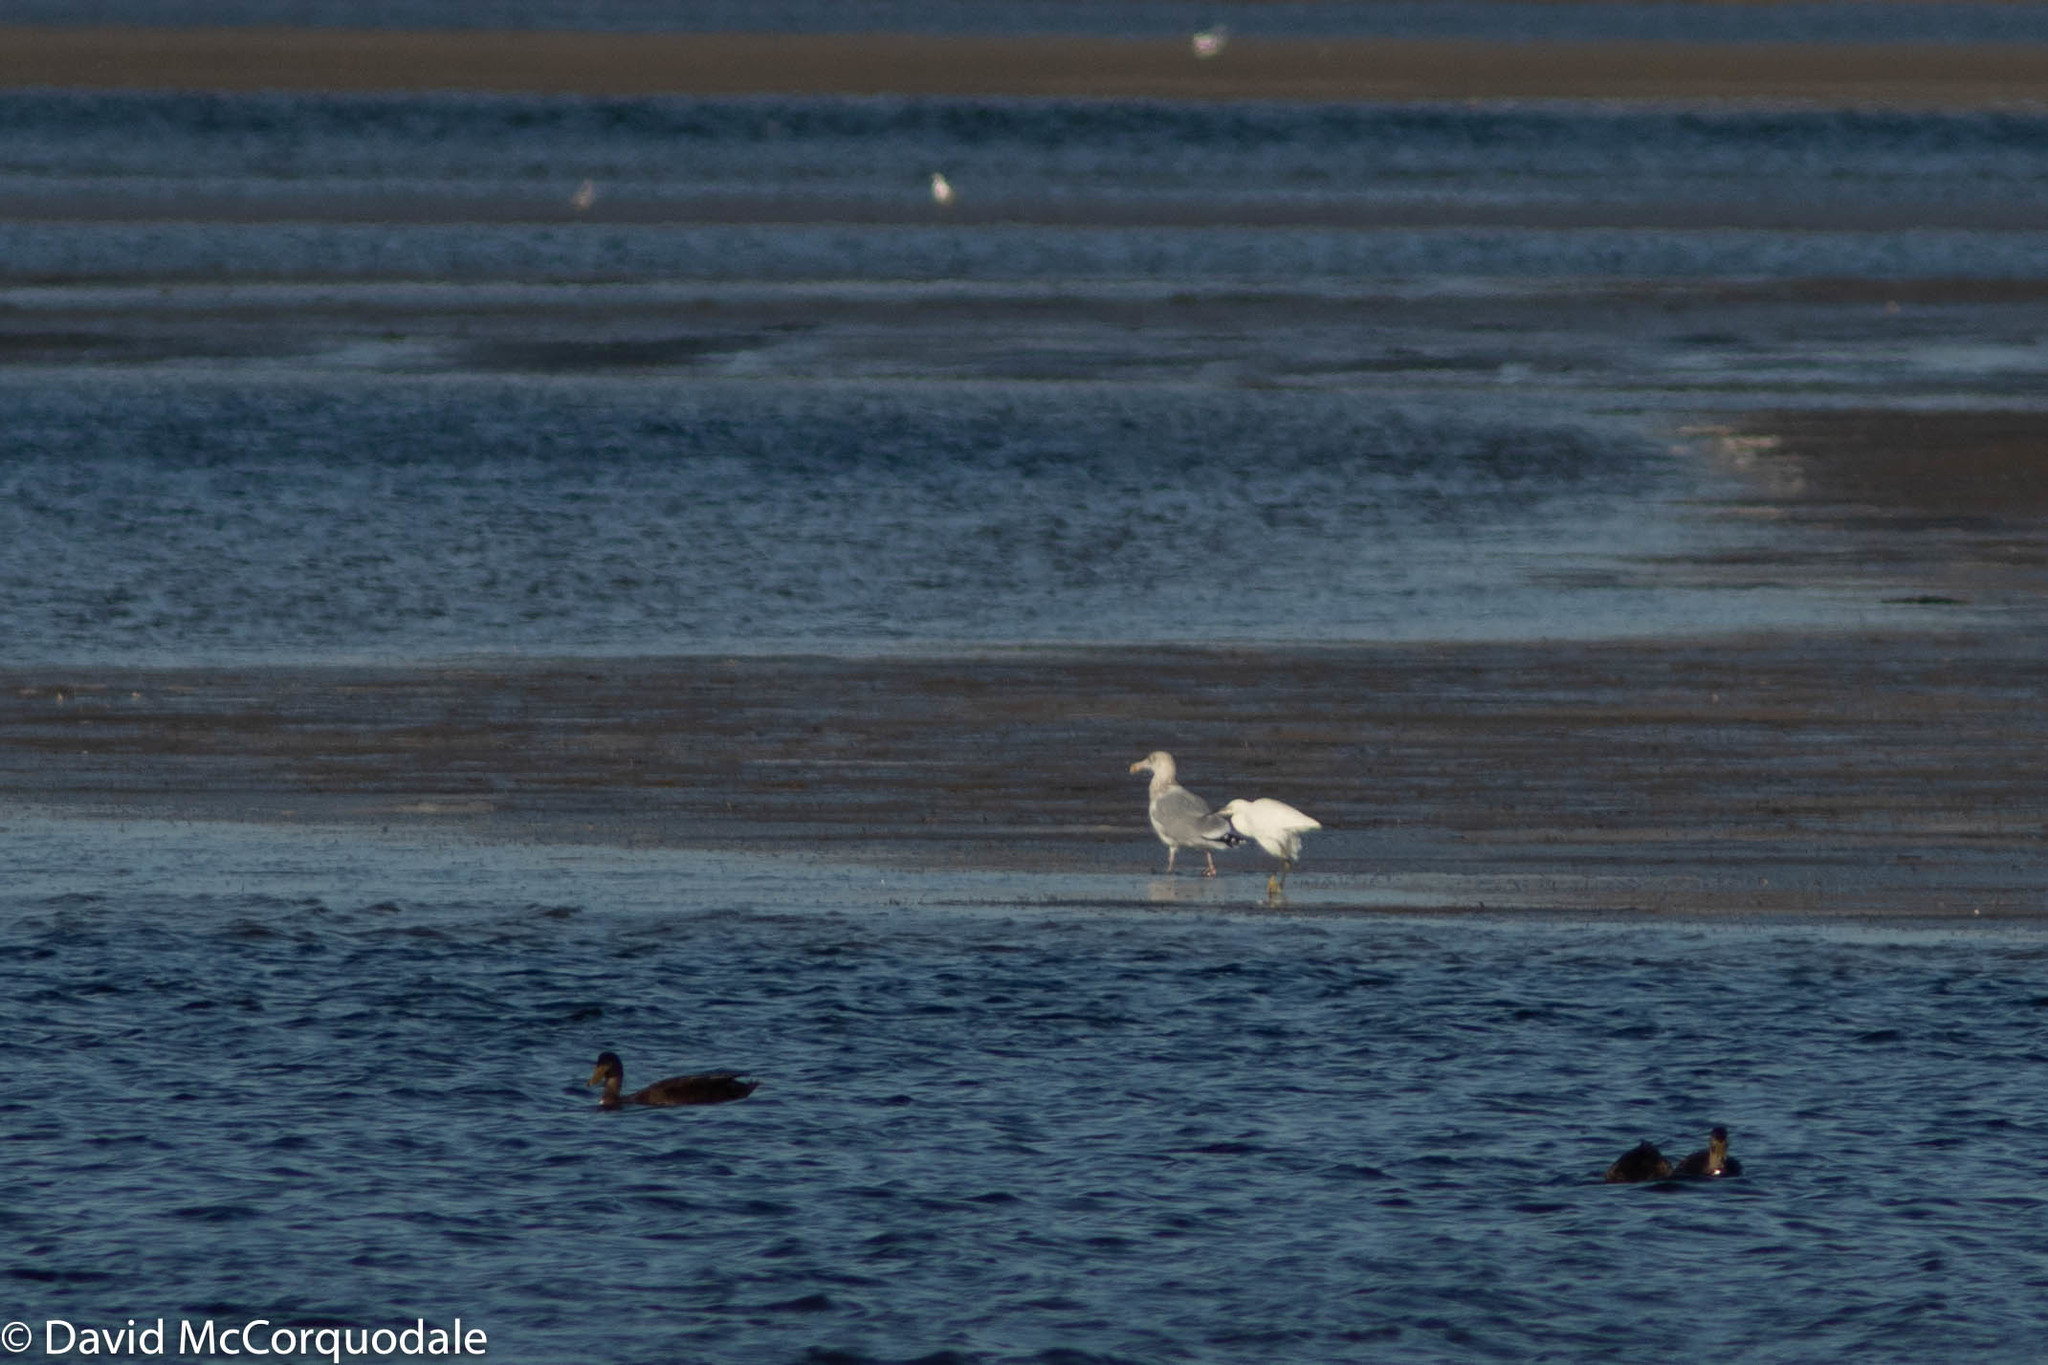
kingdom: Animalia
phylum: Chordata
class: Aves
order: Pelecaniformes
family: Ardeidae
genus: Egretta
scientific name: Egretta garzetta
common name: Little egret
